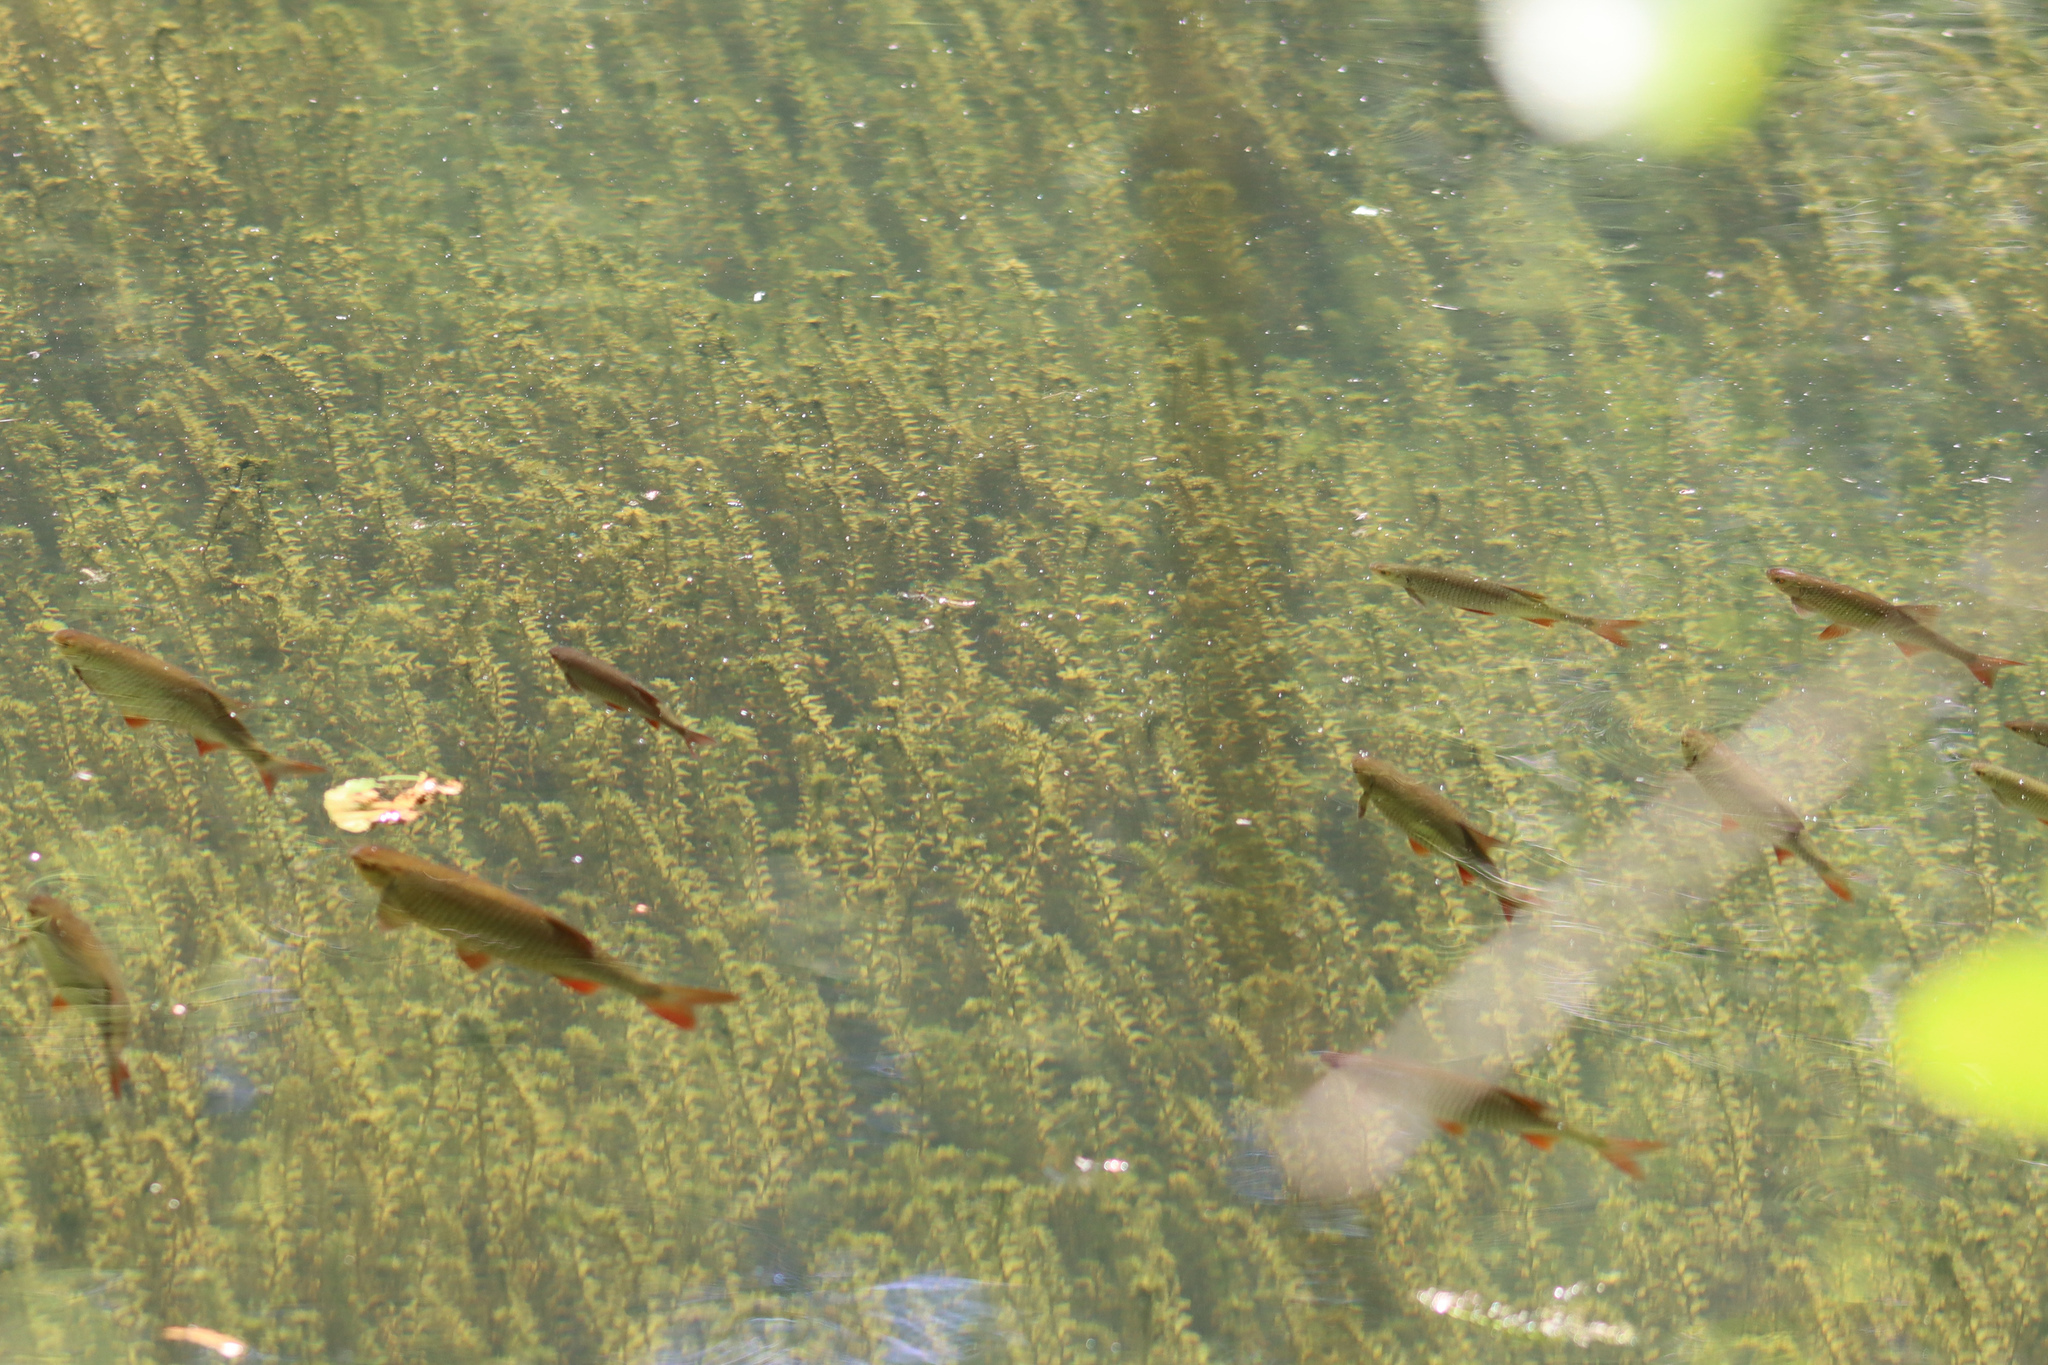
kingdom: Animalia
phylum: Chordata
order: Cypriniformes
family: Cyprinidae
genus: Scardinius
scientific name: Scardinius erythrophthalmus
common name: Rudd
